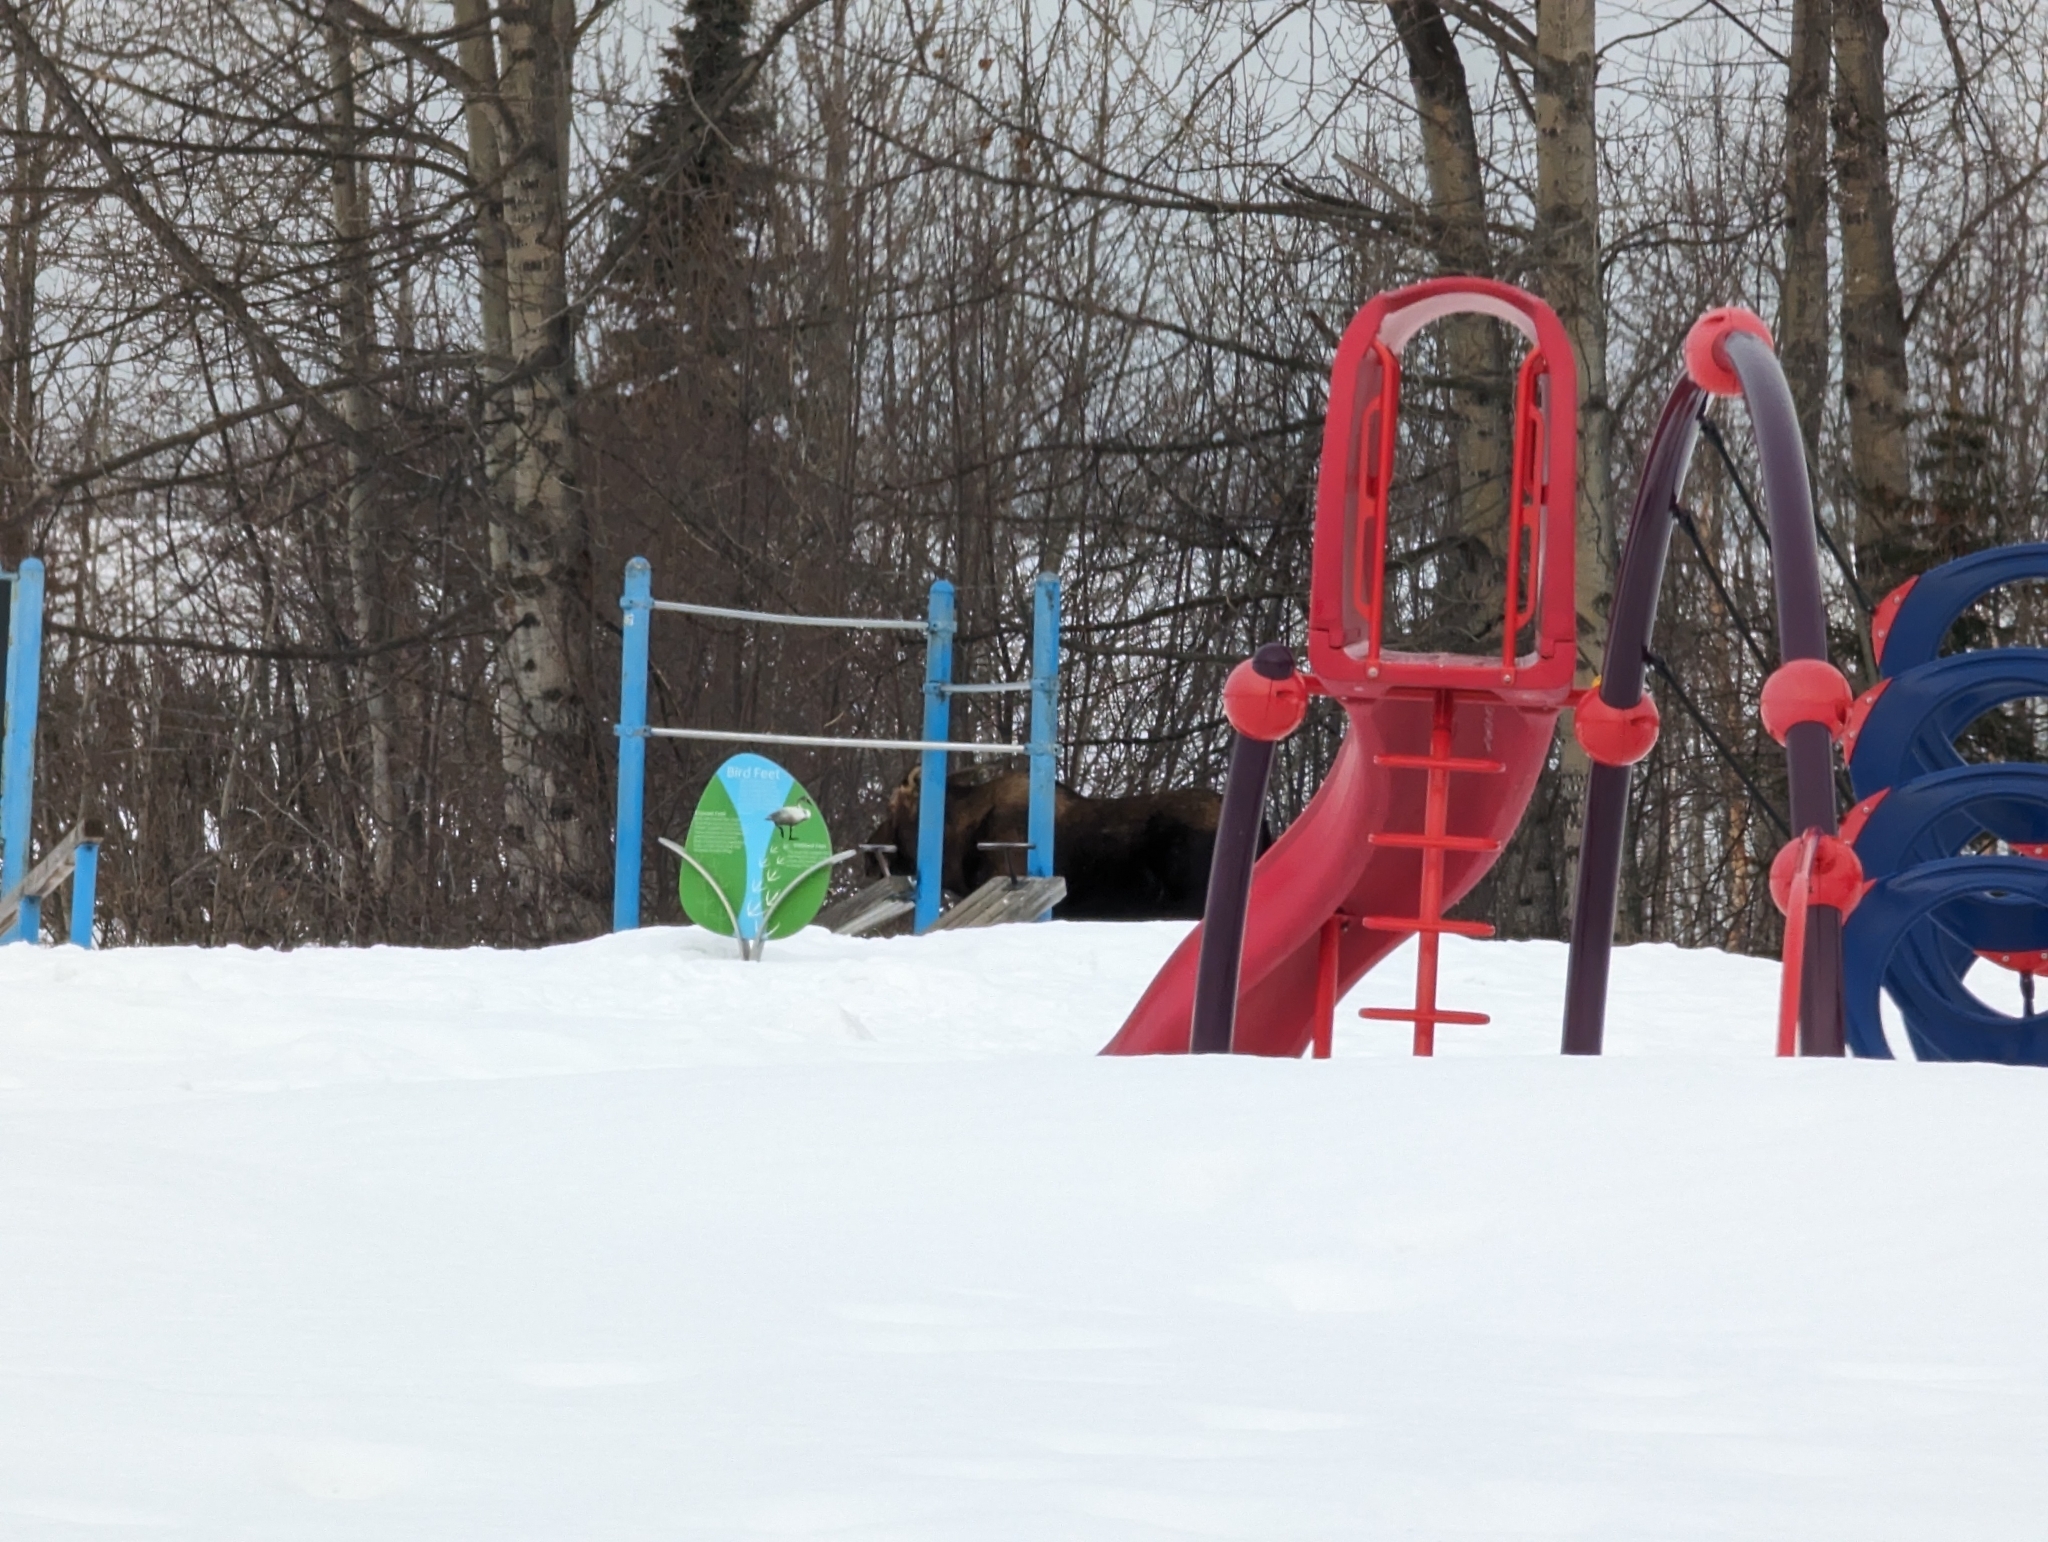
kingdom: Animalia
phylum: Chordata
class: Mammalia
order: Artiodactyla
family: Cervidae
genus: Alces
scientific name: Alces alces
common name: Moose
